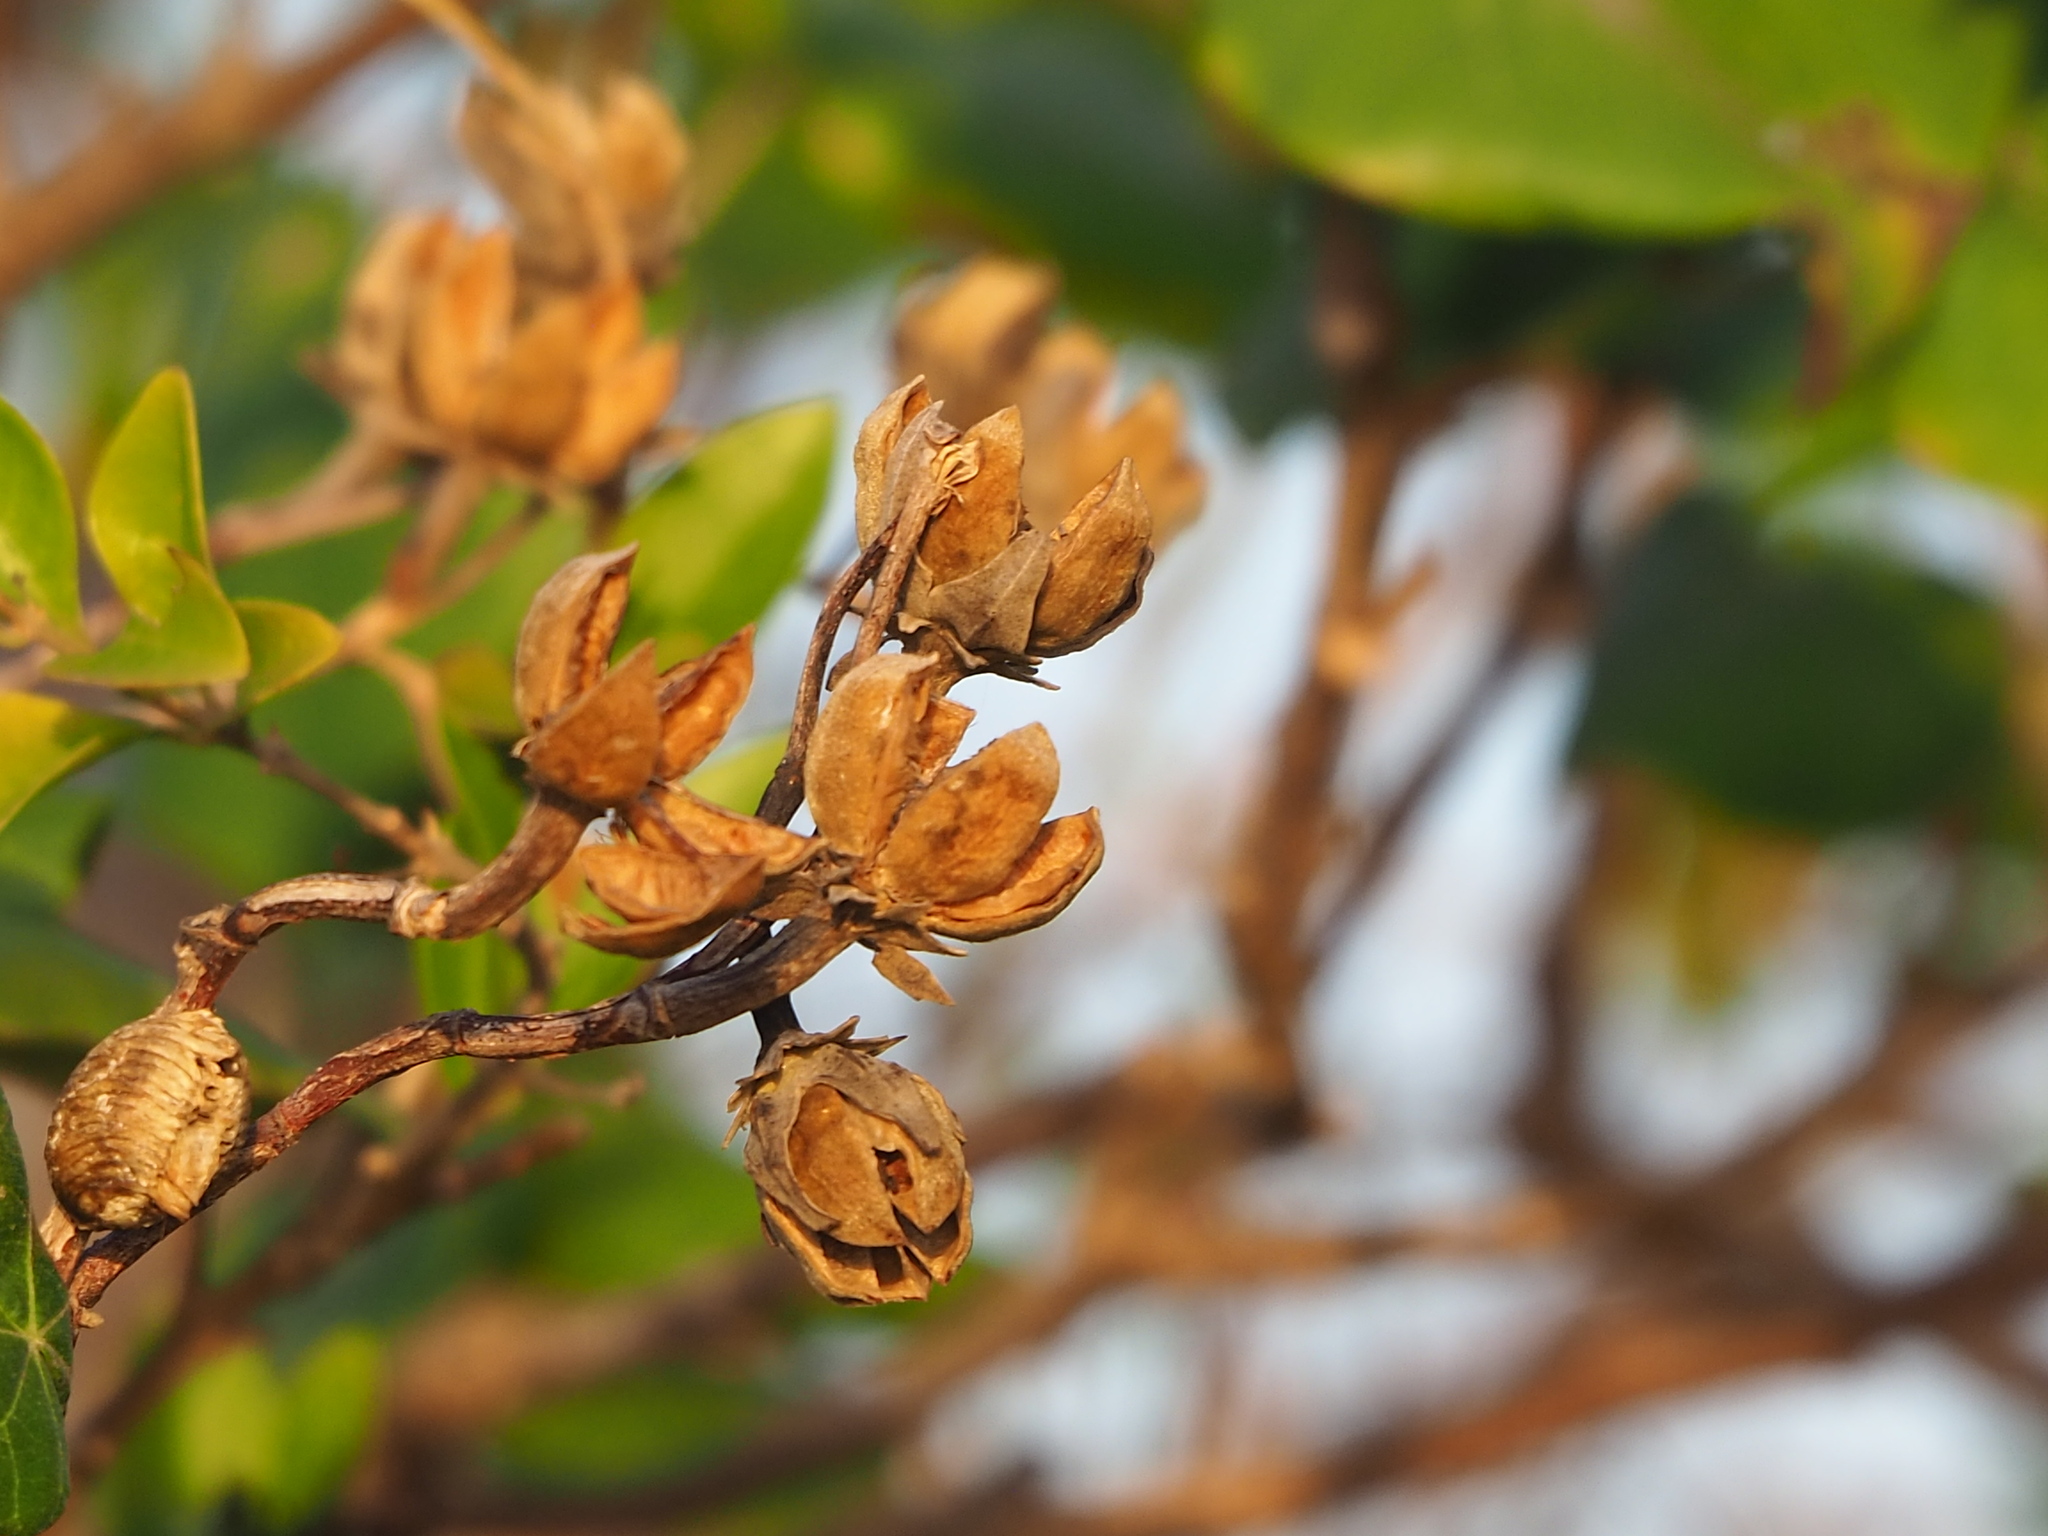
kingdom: Plantae
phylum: Tracheophyta
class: Magnoliopsida
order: Malvales
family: Malvaceae
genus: Talipariti
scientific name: Talipariti tiliaceum
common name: Sea hibiscus
